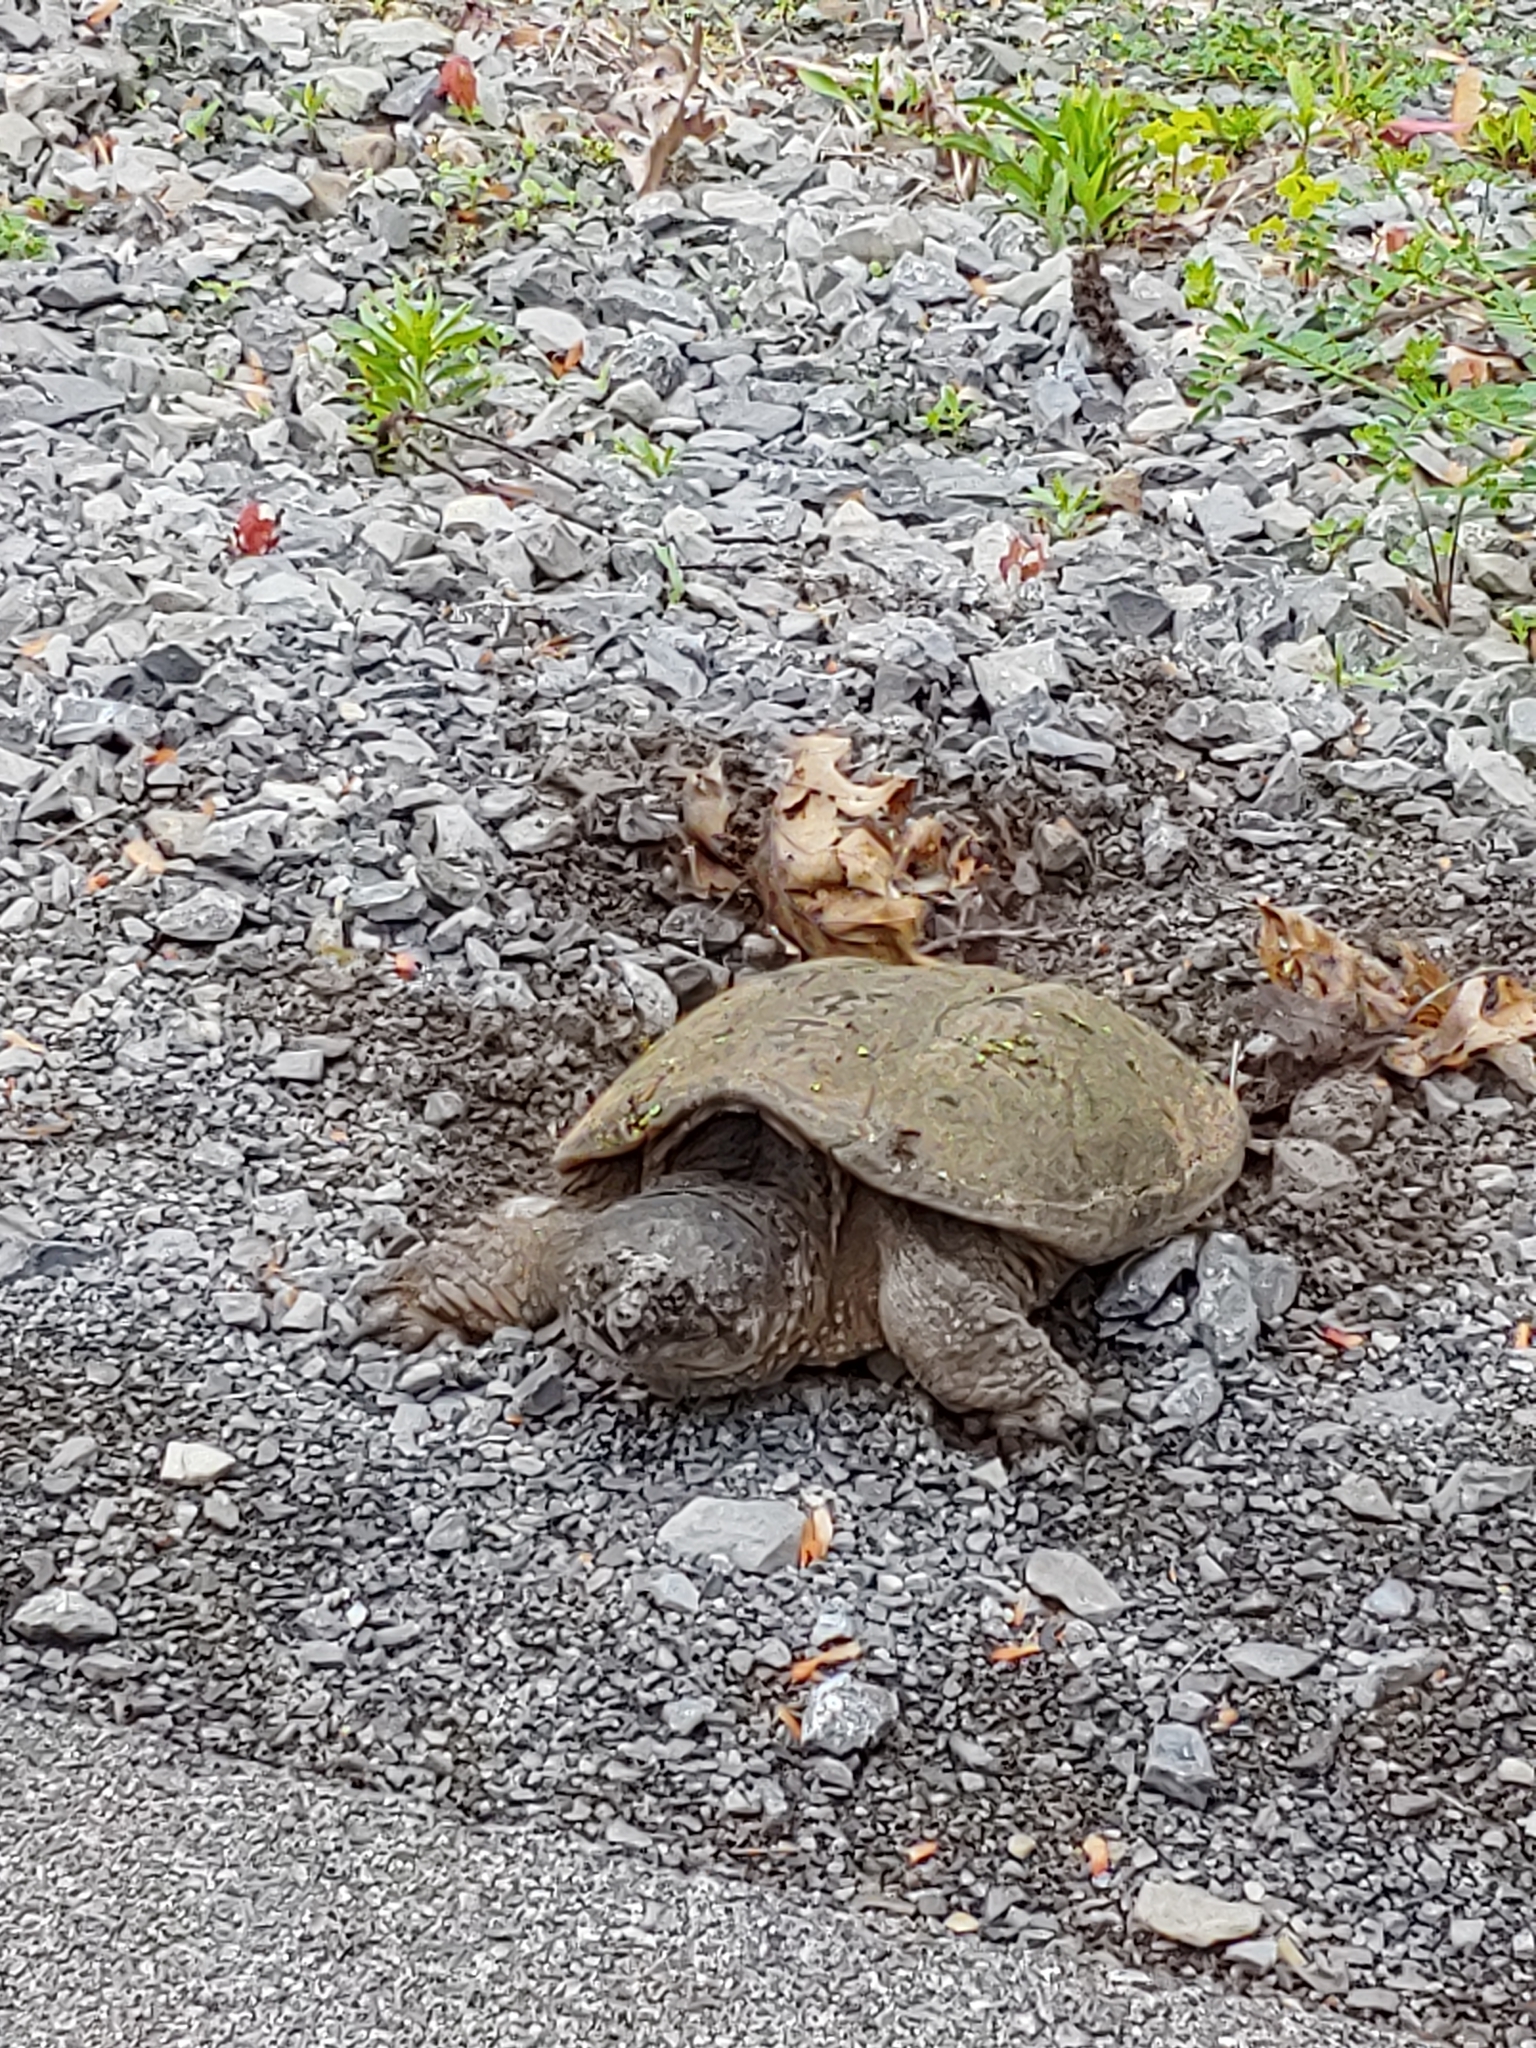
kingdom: Animalia
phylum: Chordata
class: Testudines
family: Chelydridae
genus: Chelydra
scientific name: Chelydra serpentina
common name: Common snapping turtle
